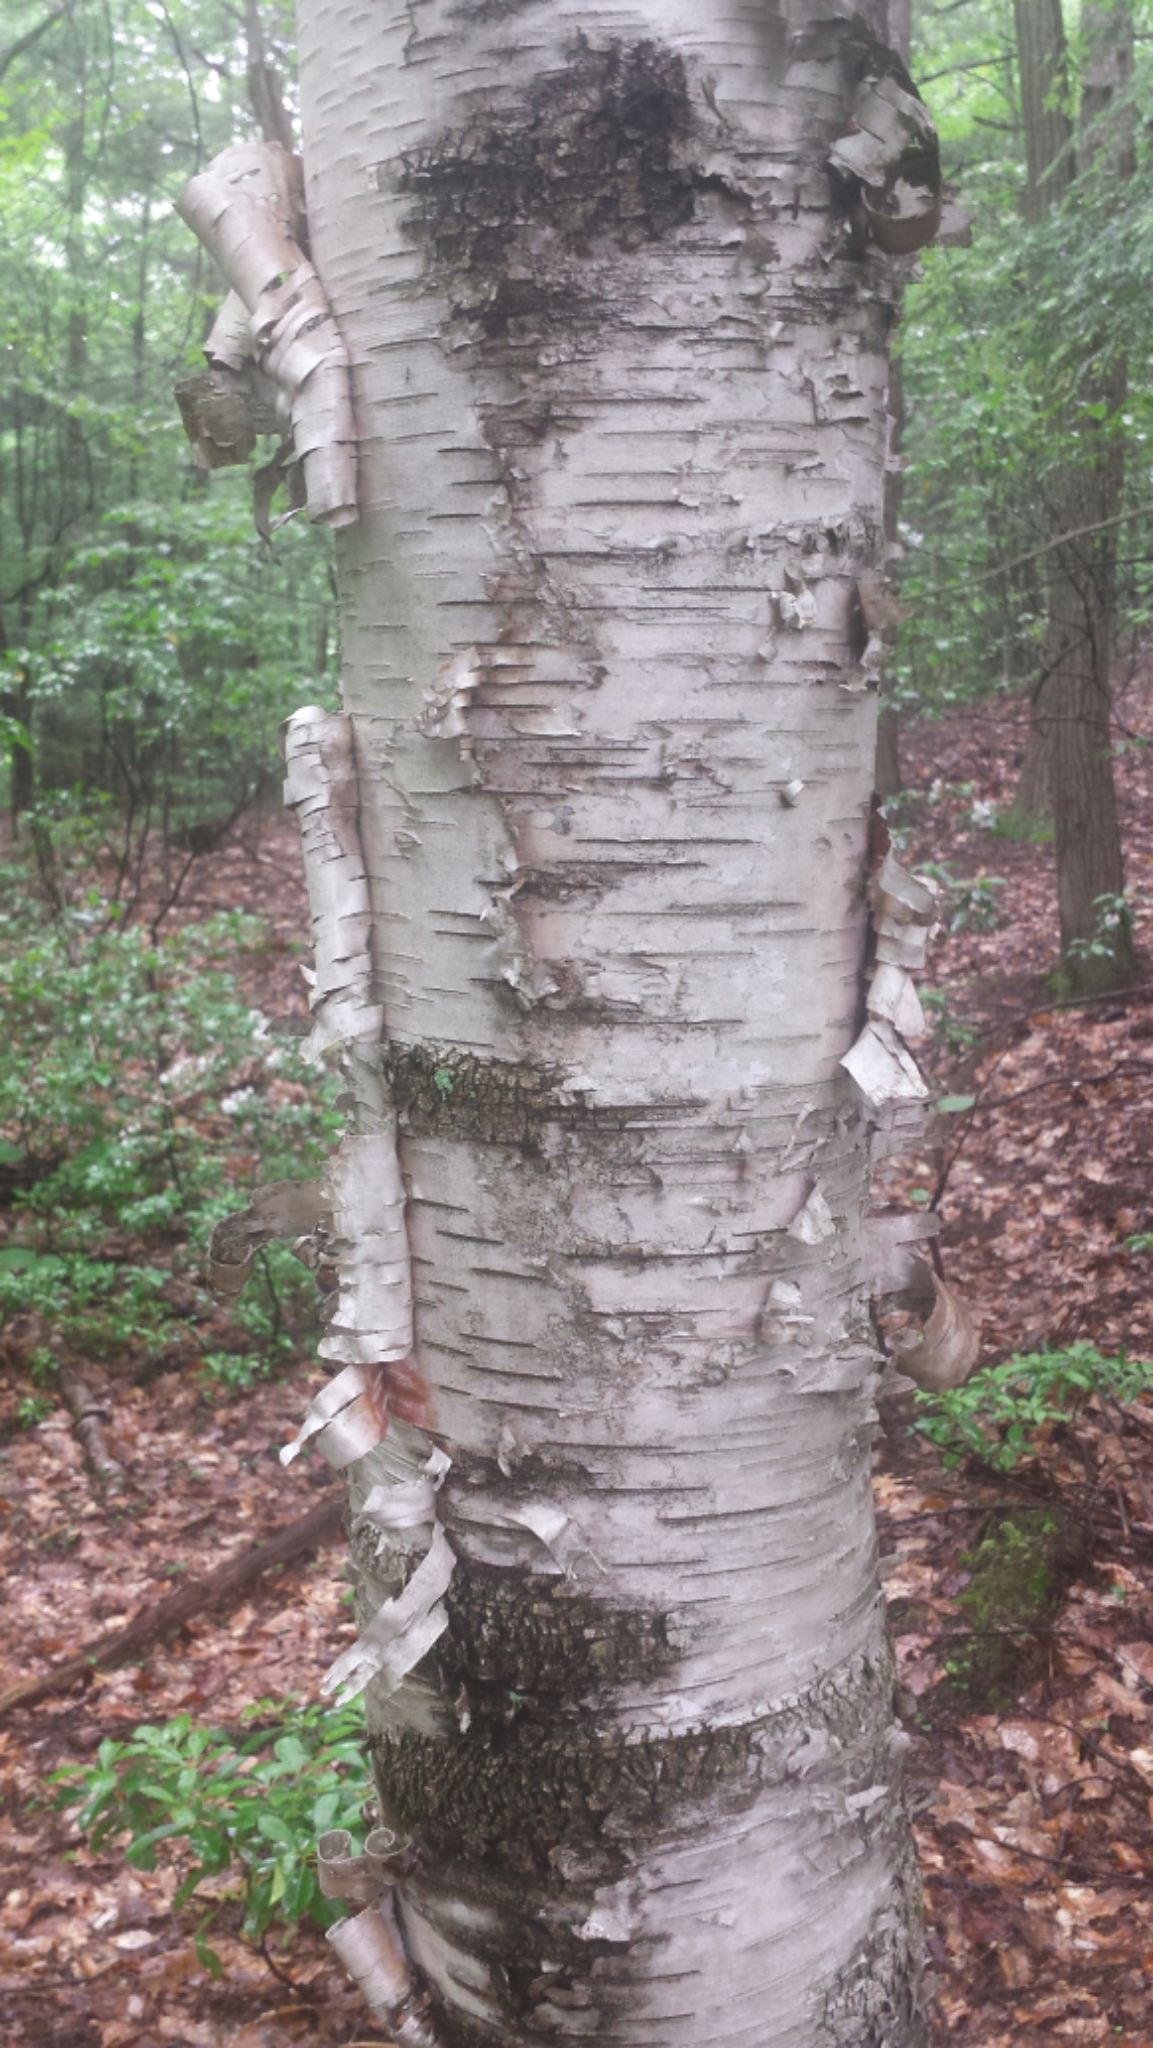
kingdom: Plantae
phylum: Tracheophyta
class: Magnoliopsida
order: Fagales
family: Betulaceae
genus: Betula
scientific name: Betula papyrifera
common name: Paper birch
